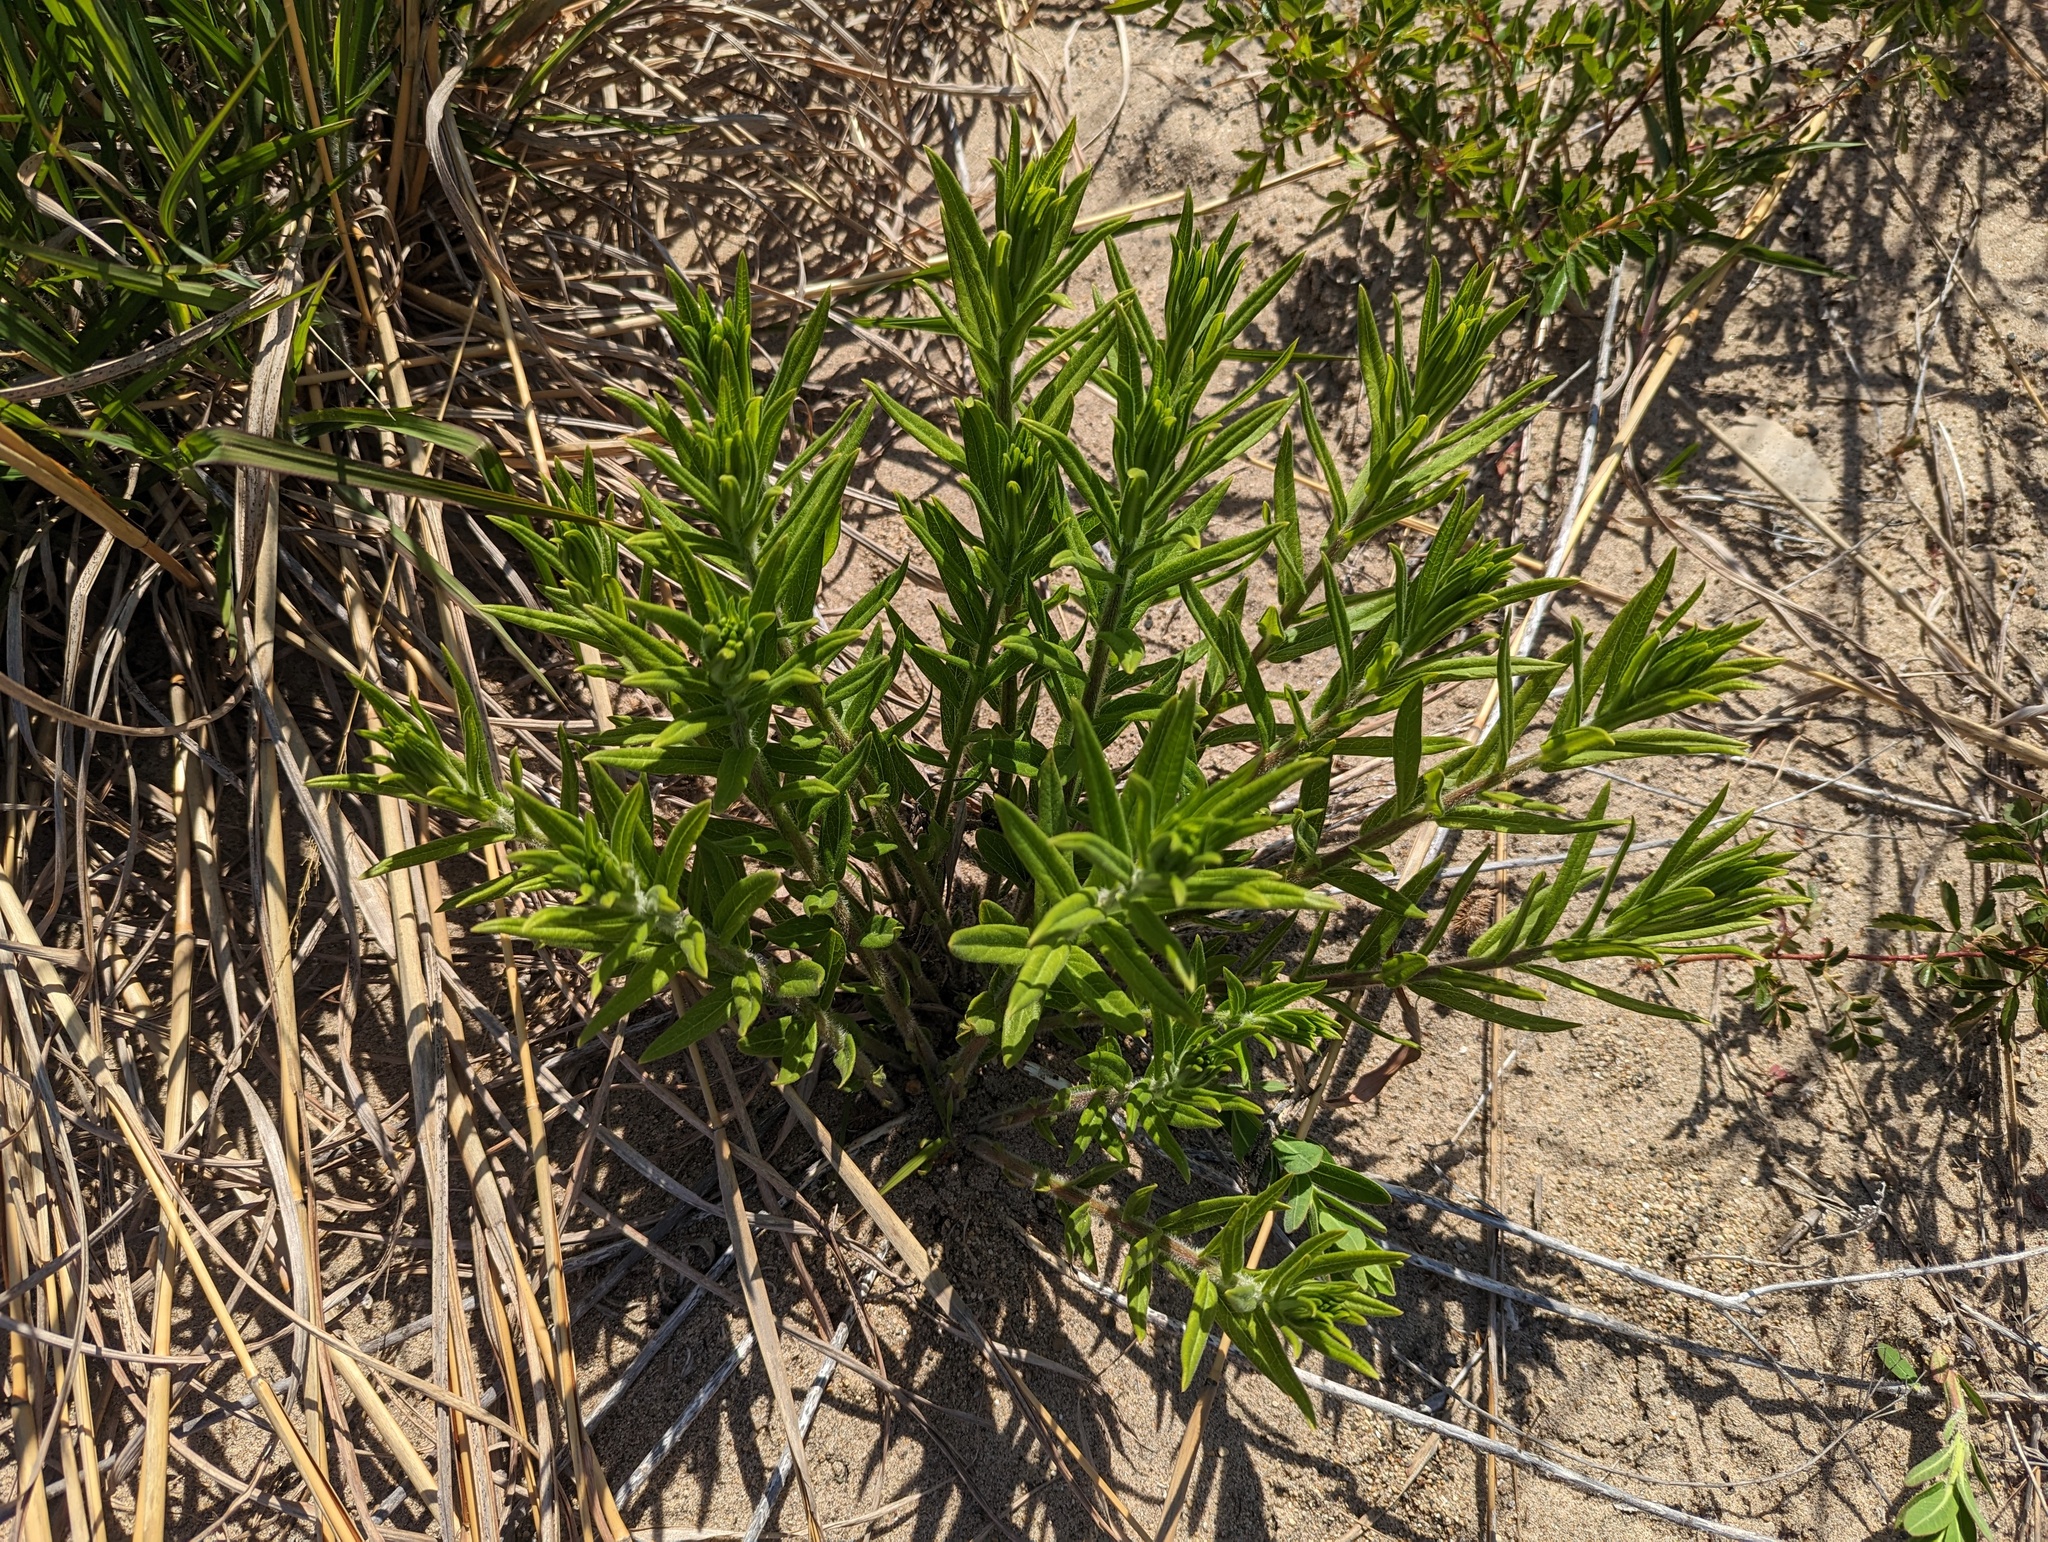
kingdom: Plantae
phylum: Tracheophyta
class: Magnoliopsida
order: Gentianales
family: Apocynaceae
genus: Asclepias
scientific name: Asclepias tuberosa
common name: Butterfly milkweed
